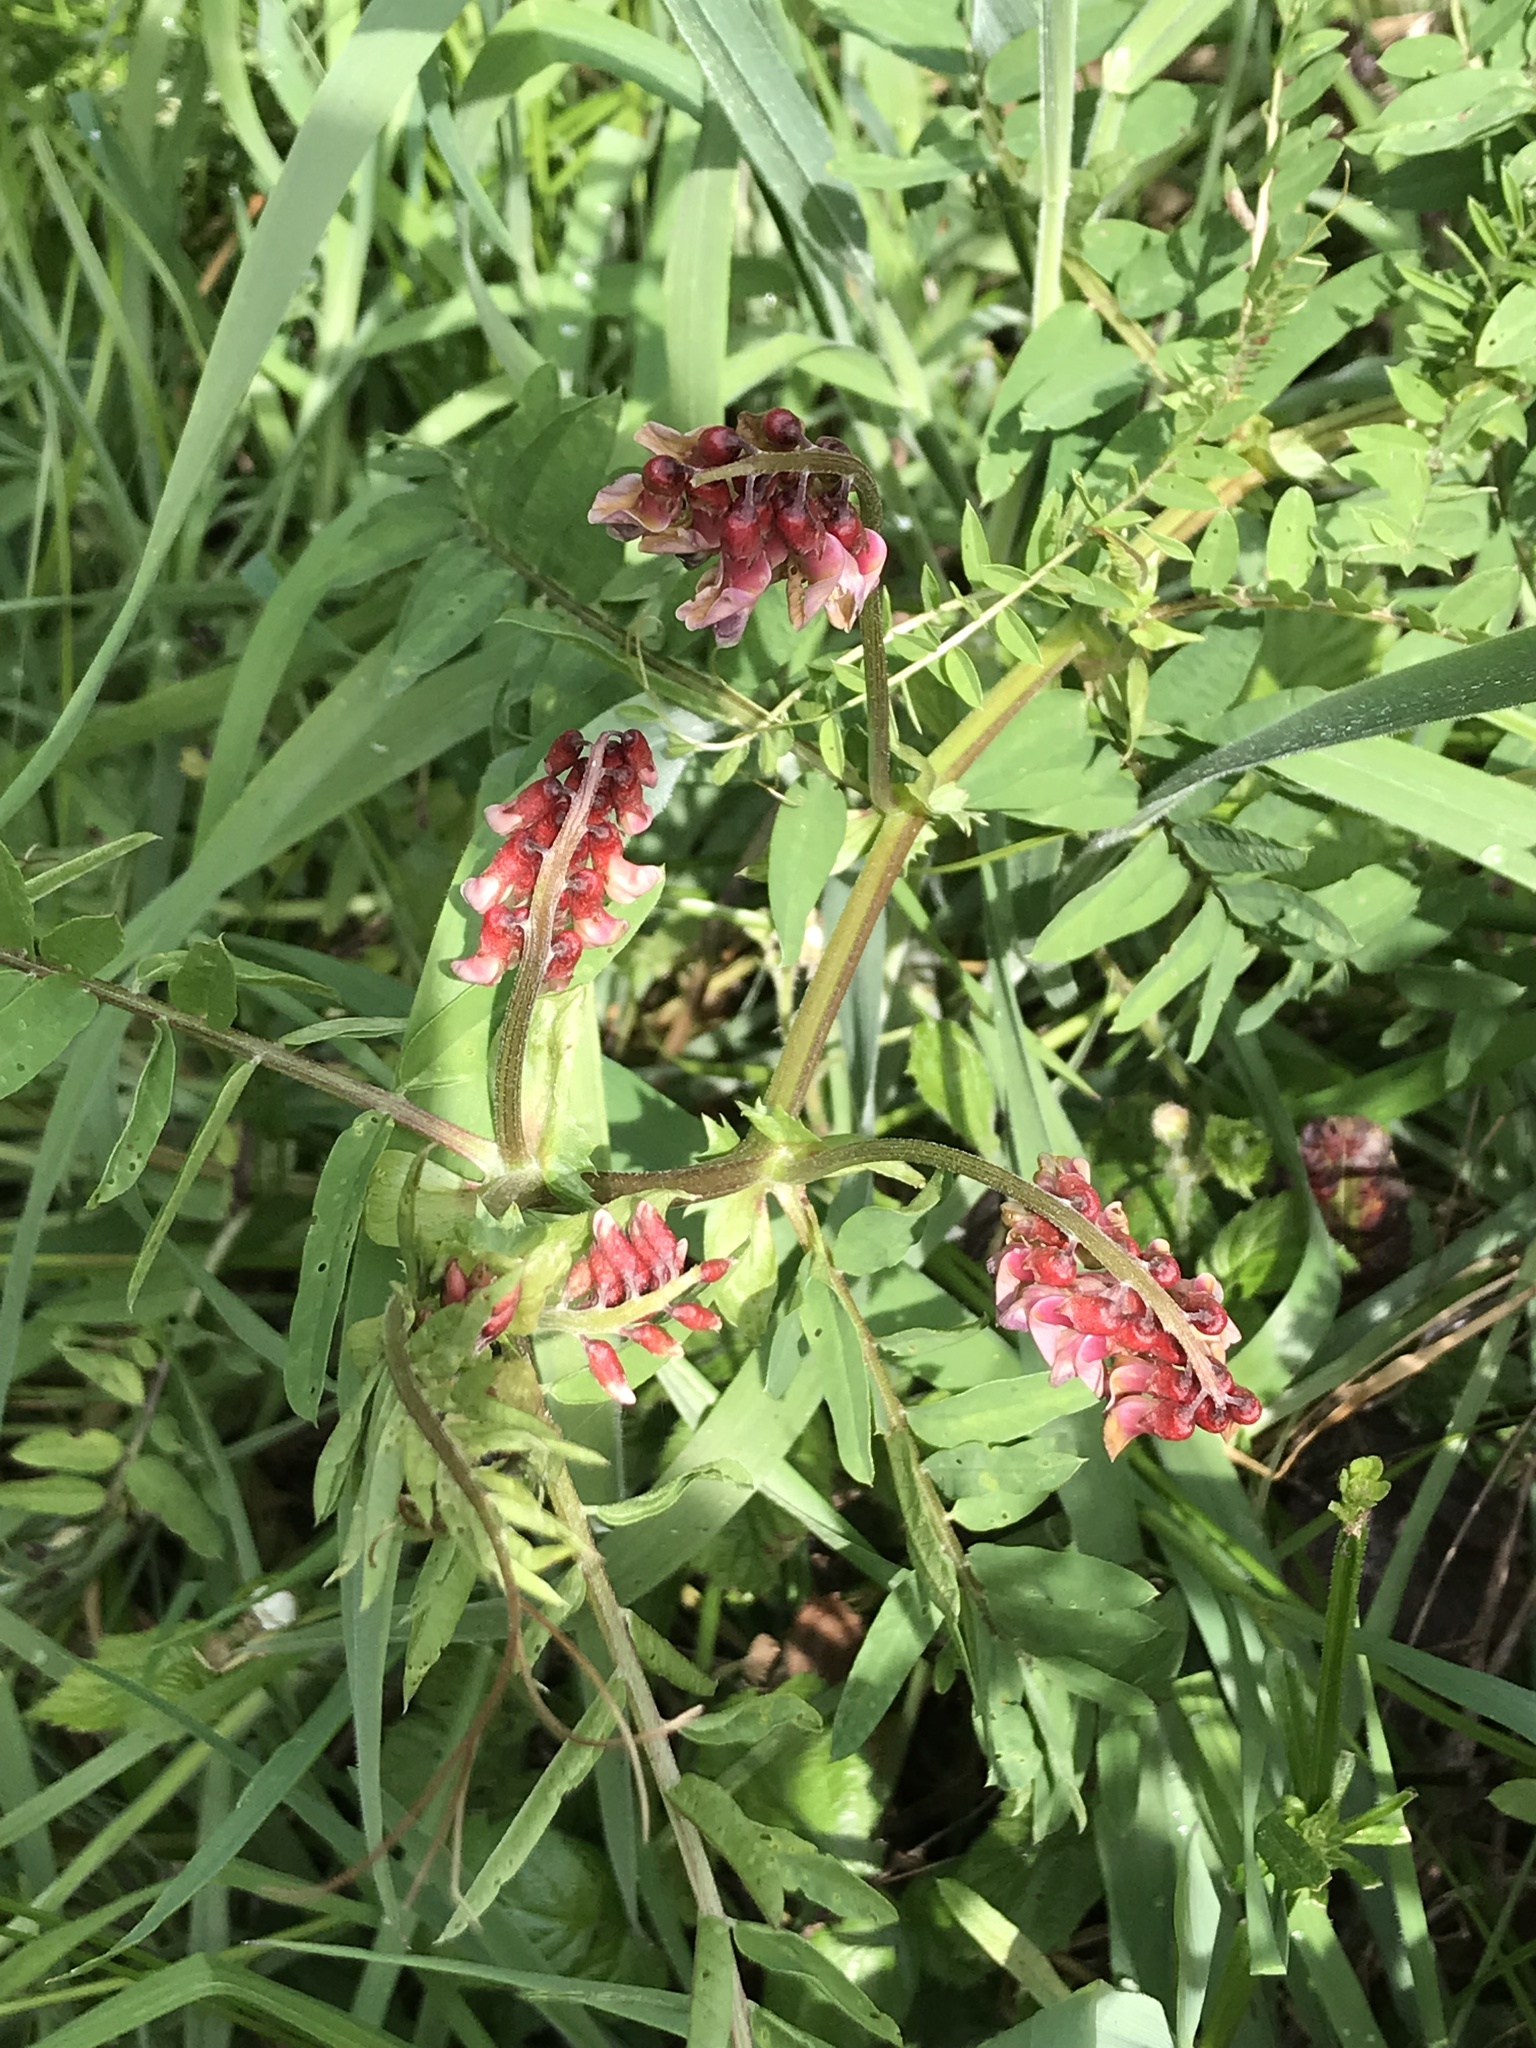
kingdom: Plantae
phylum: Tracheophyta
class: Magnoliopsida
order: Fabales
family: Fabaceae
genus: Vicia
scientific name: Vicia
